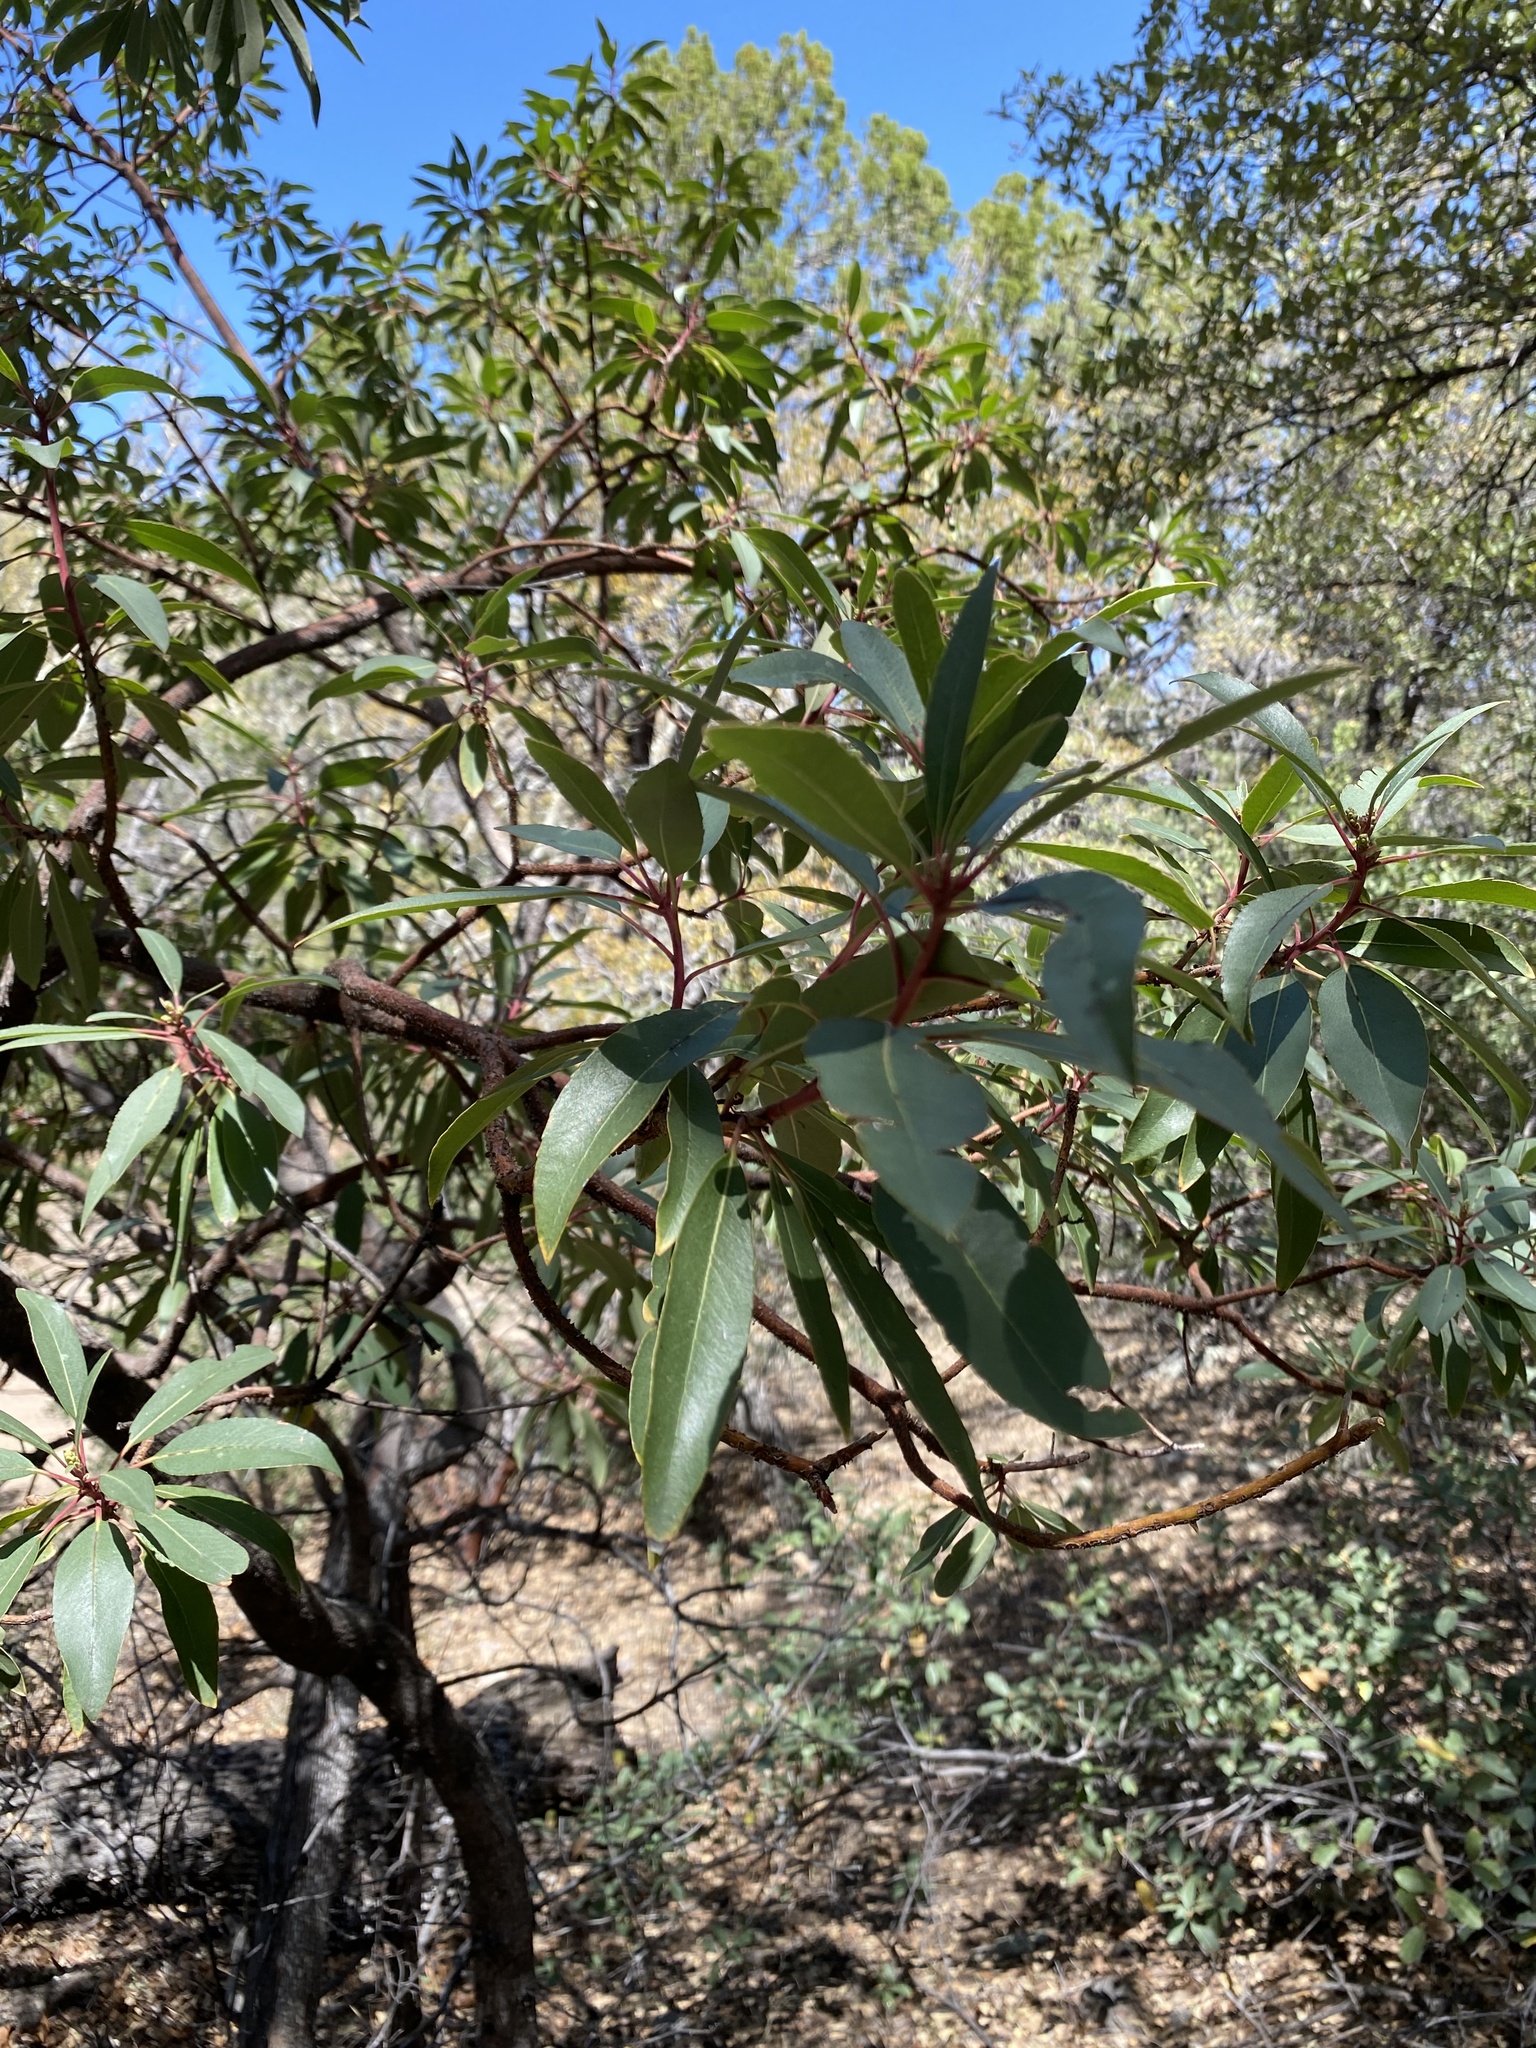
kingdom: Plantae
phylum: Tracheophyta
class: Magnoliopsida
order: Ericales
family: Ericaceae
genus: Arbutus
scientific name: Arbutus arizonica
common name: Arizona madrone
